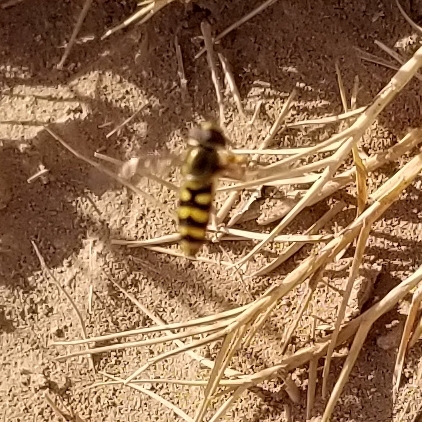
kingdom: Animalia
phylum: Arthropoda
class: Insecta
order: Diptera
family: Syrphidae
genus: Eupeodes
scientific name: Eupeodes fumipennis
